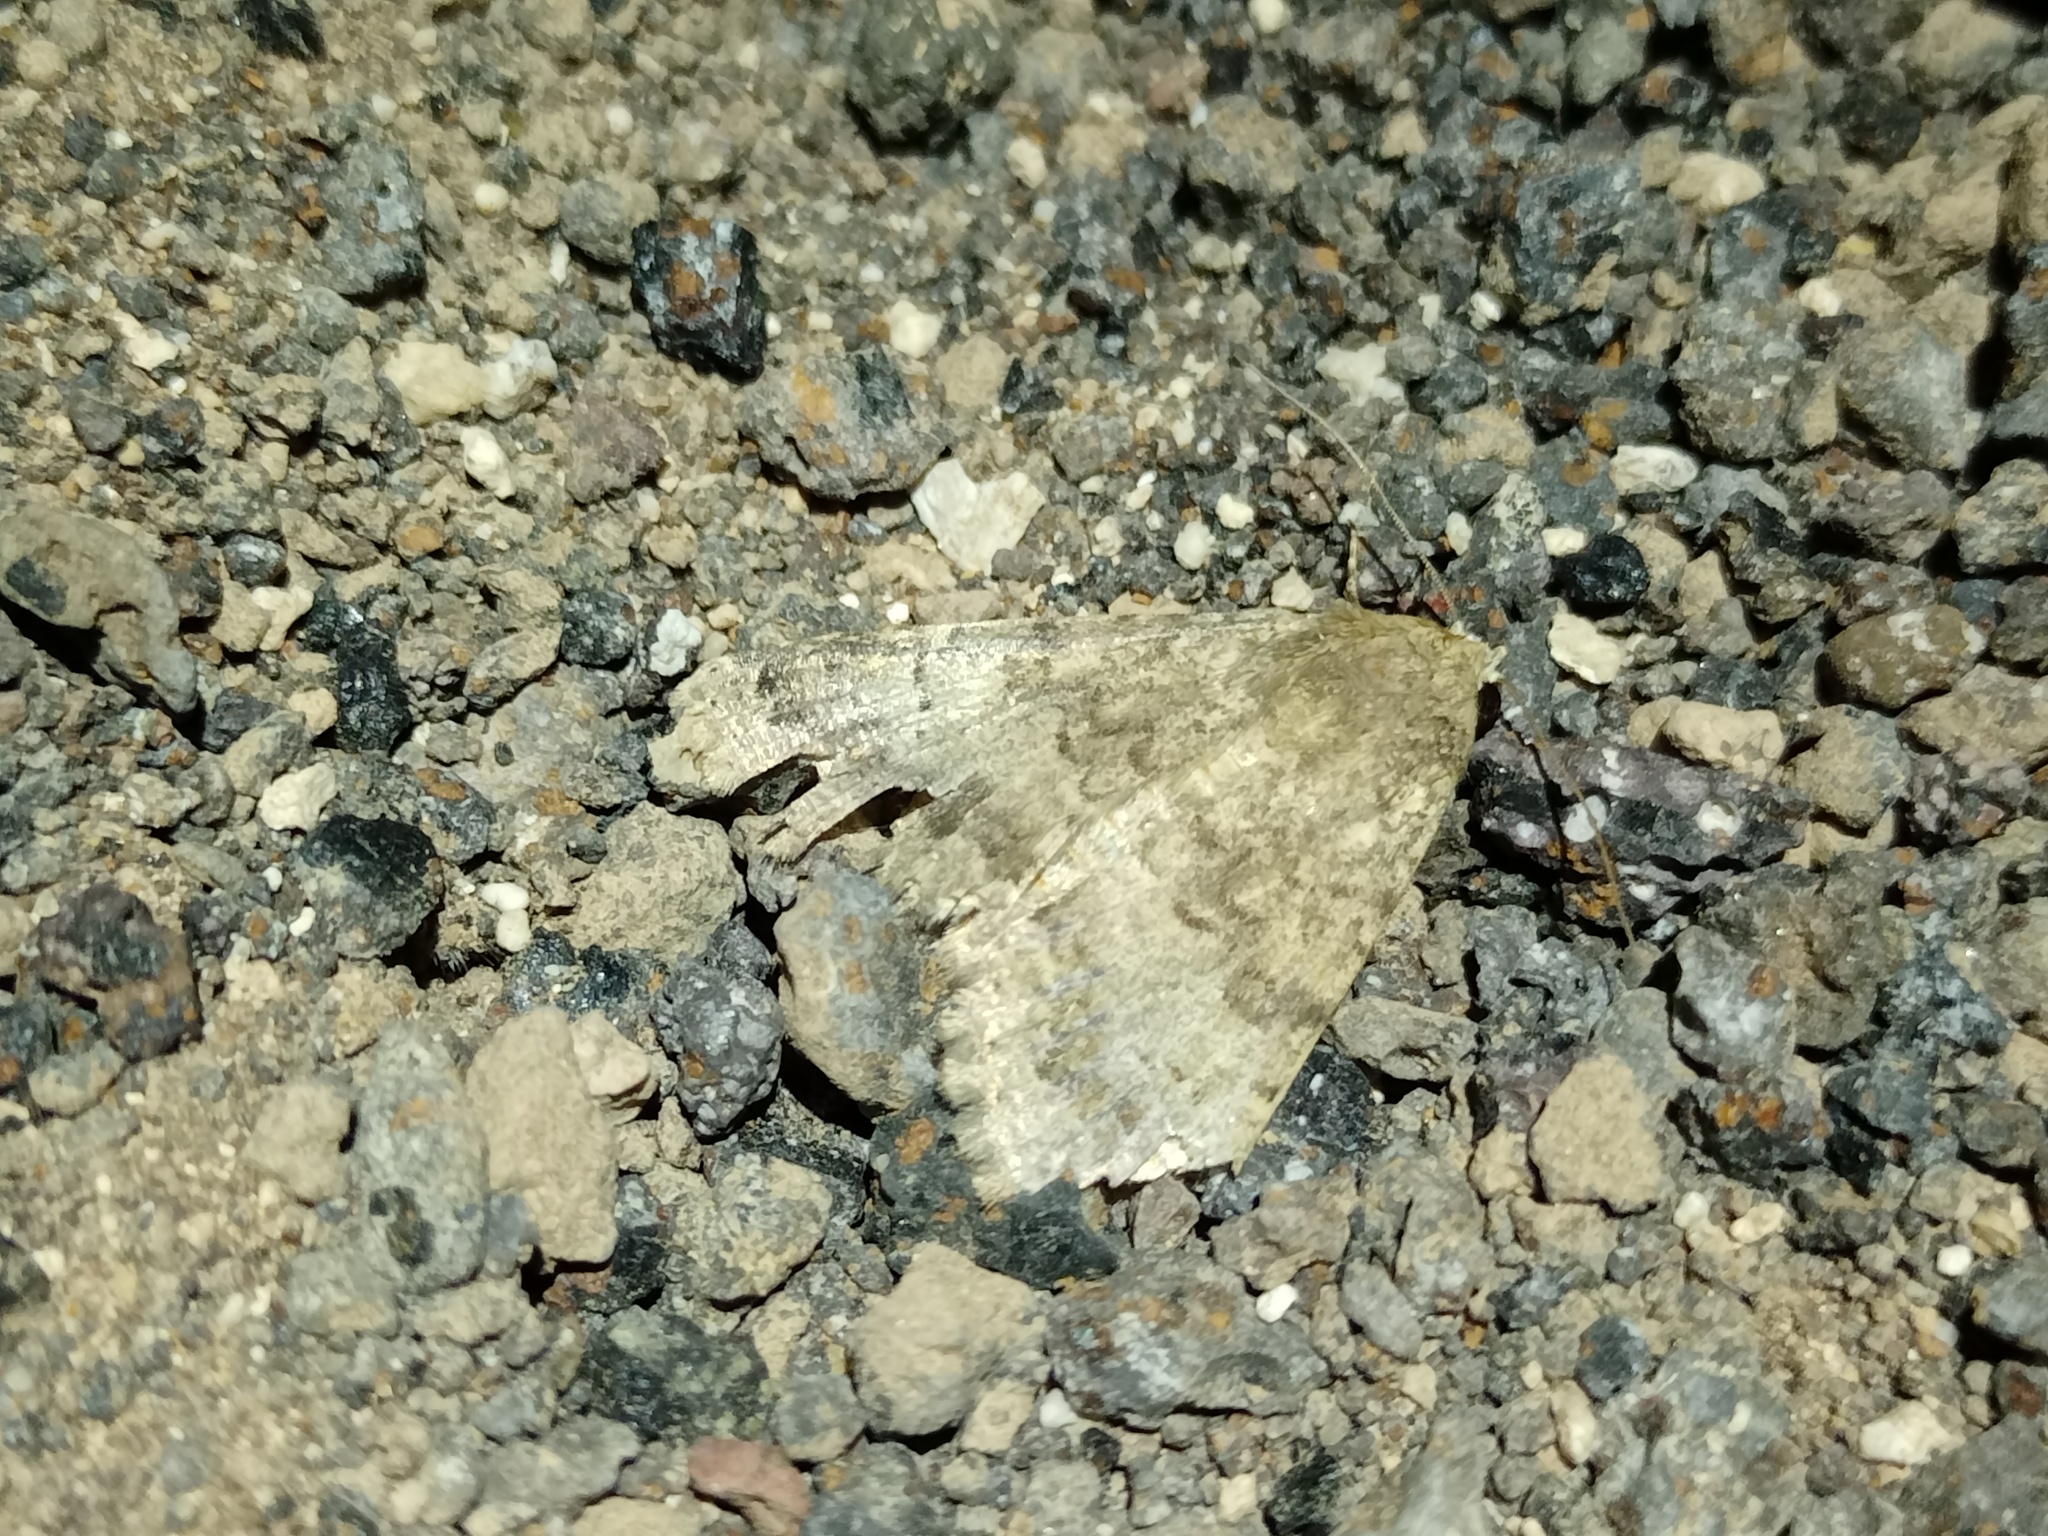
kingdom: Animalia
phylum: Arthropoda
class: Insecta
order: Lepidoptera
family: Erebidae
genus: Pandesma
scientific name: Pandesma robusta
